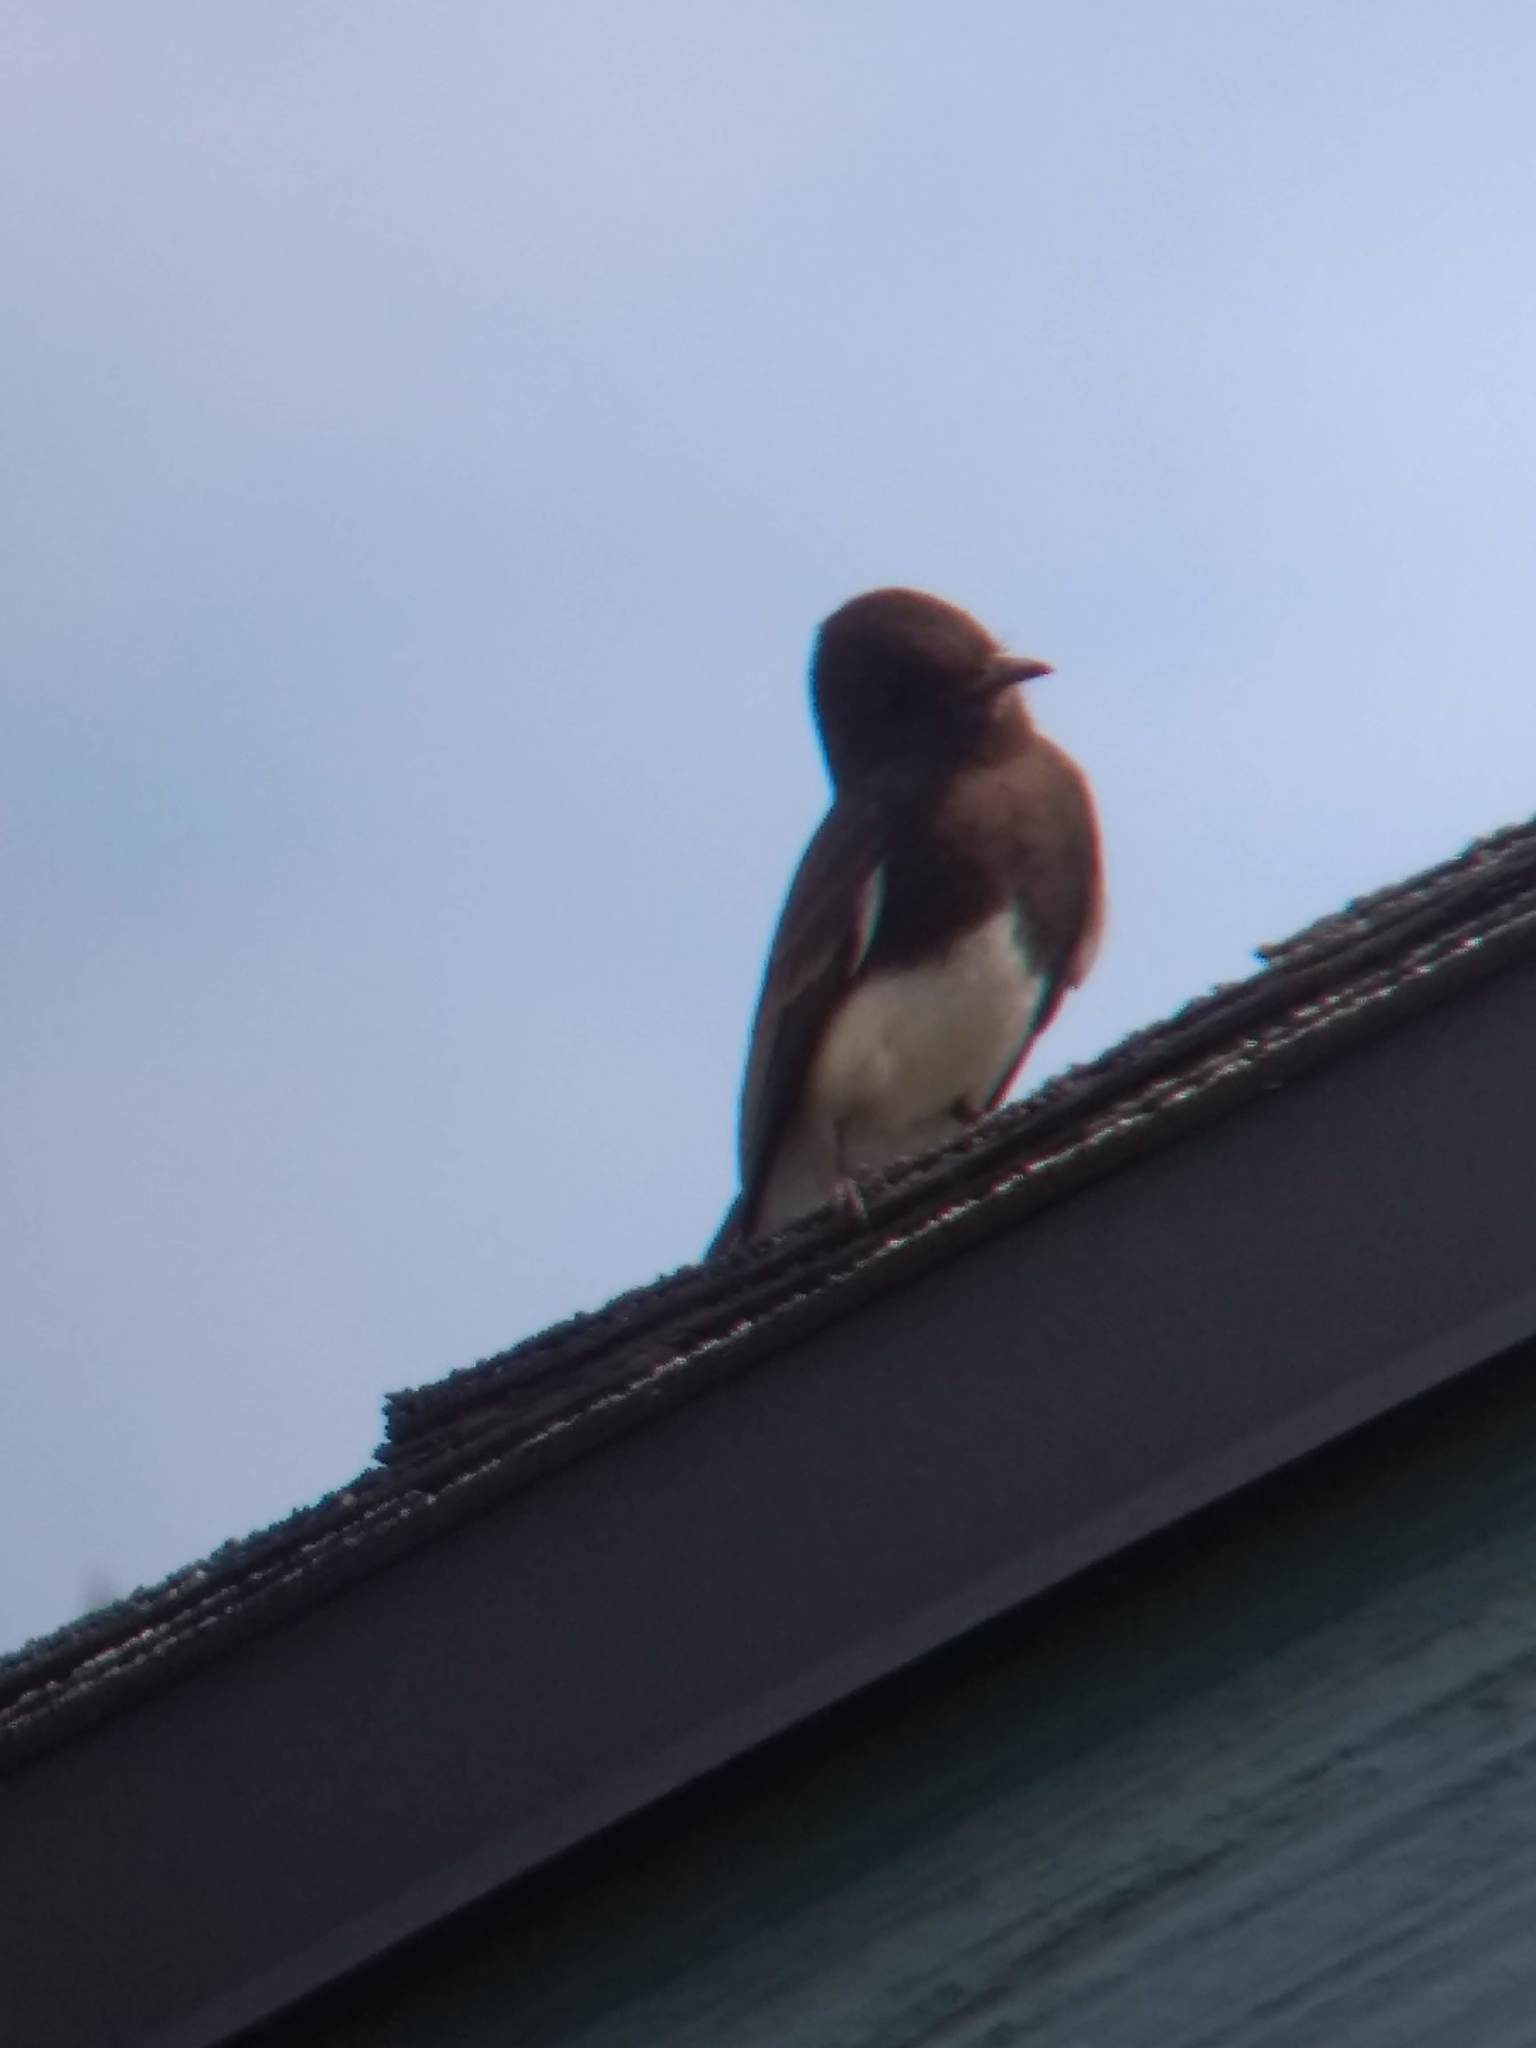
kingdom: Animalia
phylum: Chordata
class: Aves
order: Passeriformes
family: Tyrannidae
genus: Sayornis
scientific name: Sayornis nigricans
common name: Black phoebe
